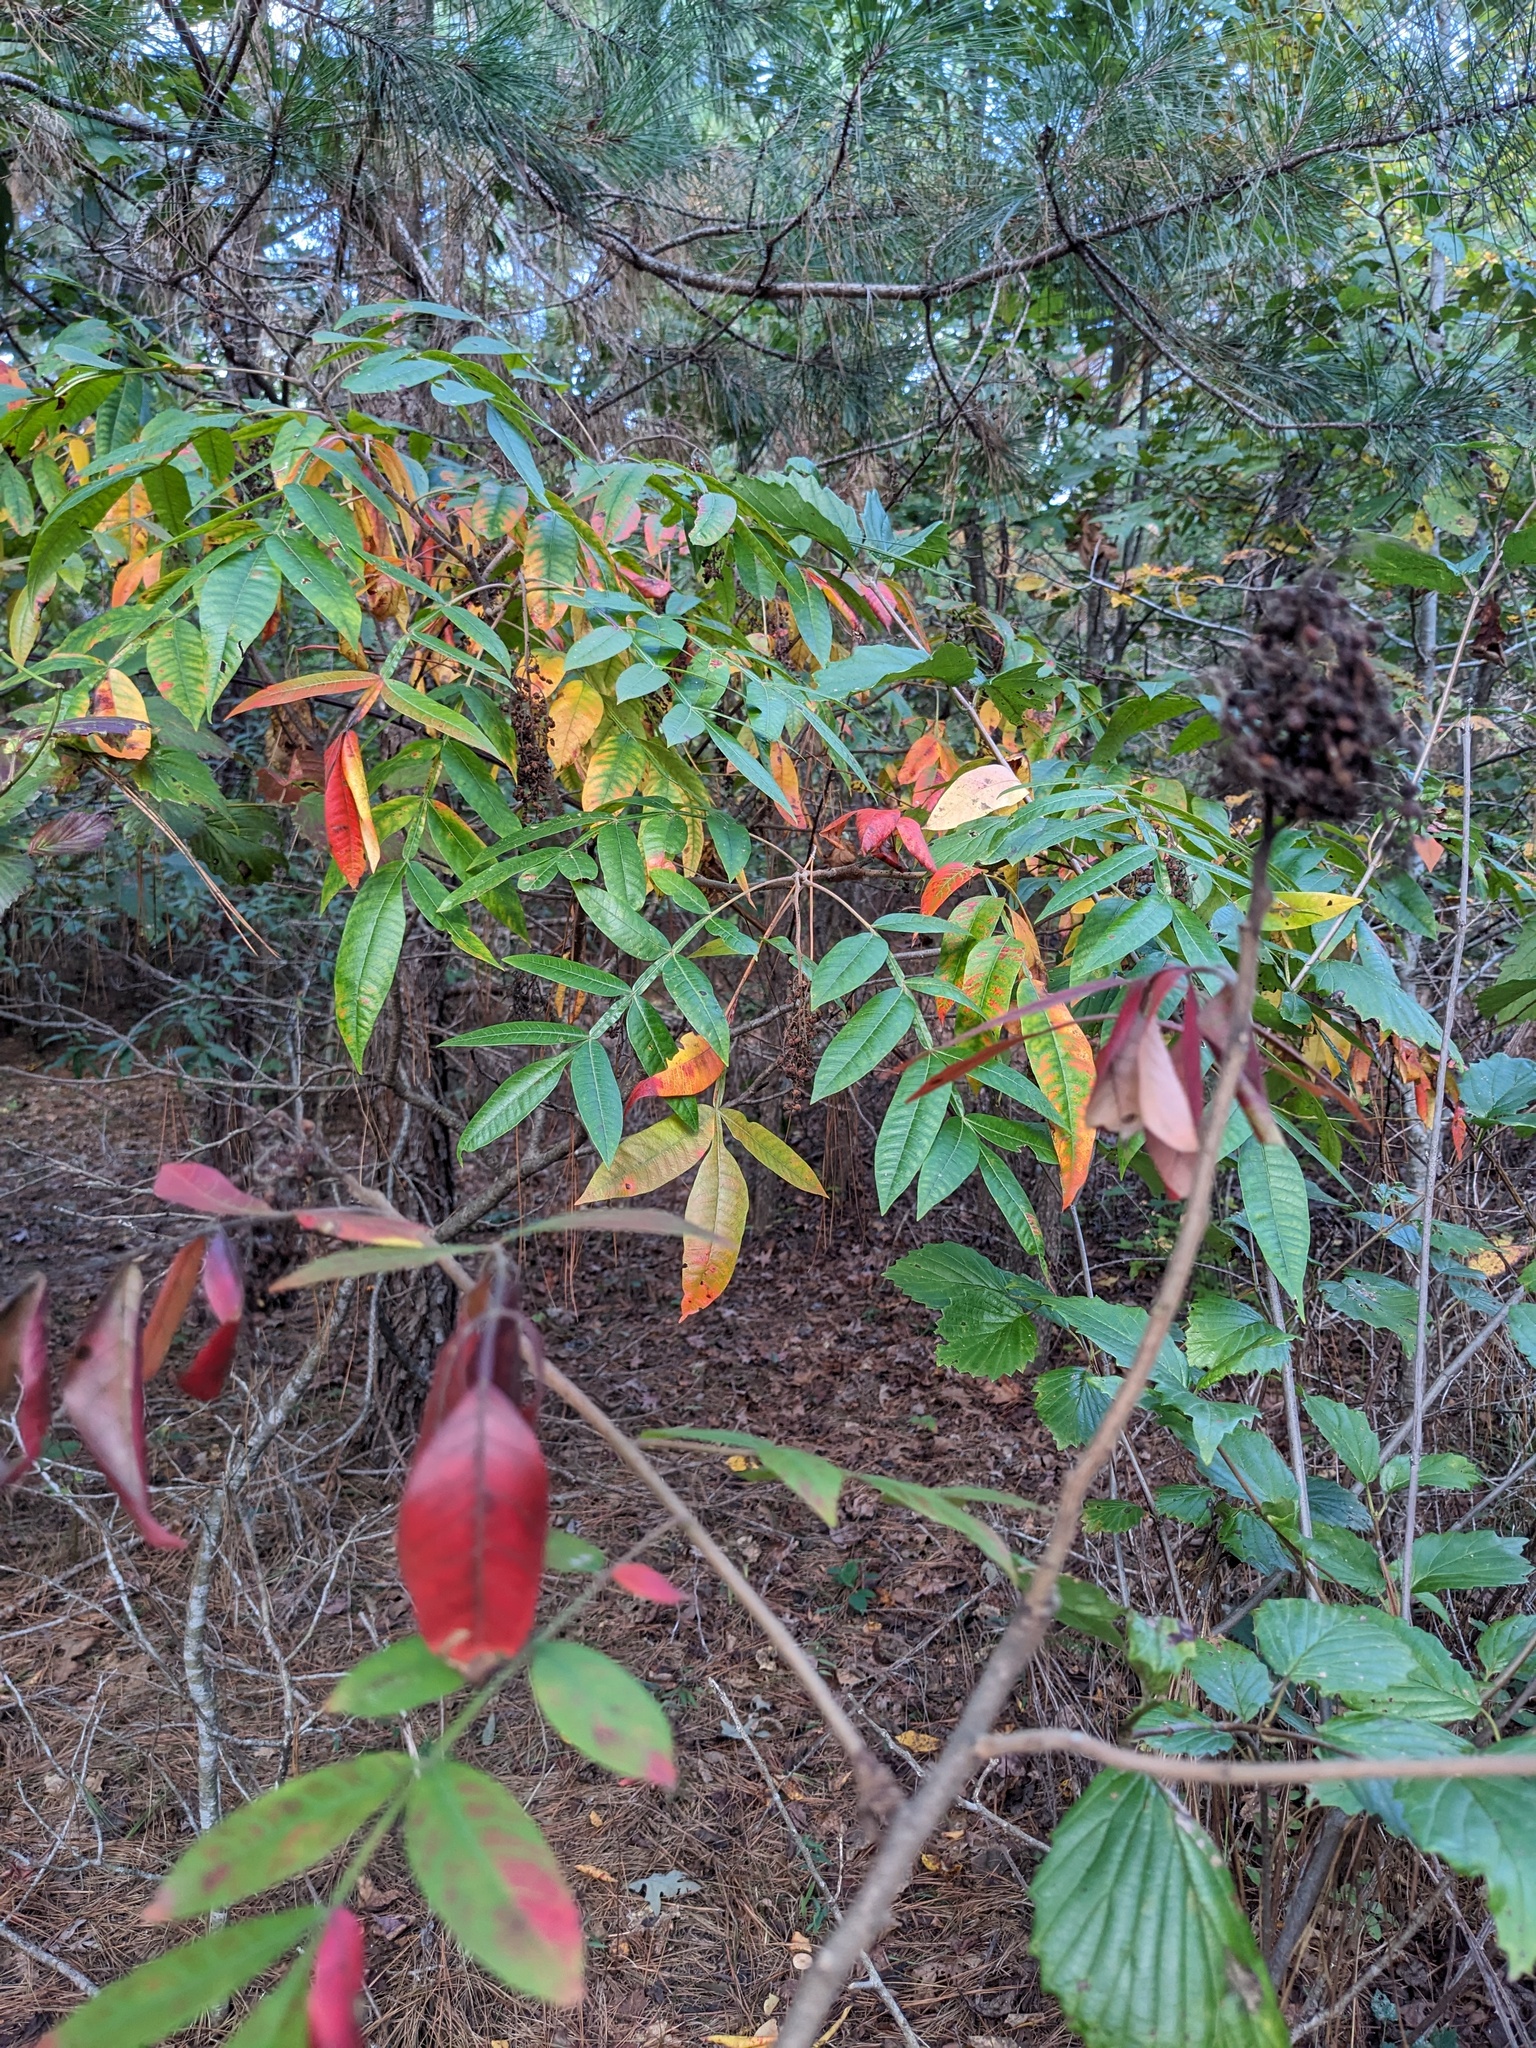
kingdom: Plantae
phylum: Tracheophyta
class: Magnoliopsida
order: Sapindales
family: Anacardiaceae
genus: Rhus
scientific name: Rhus copallina
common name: Shining sumac
